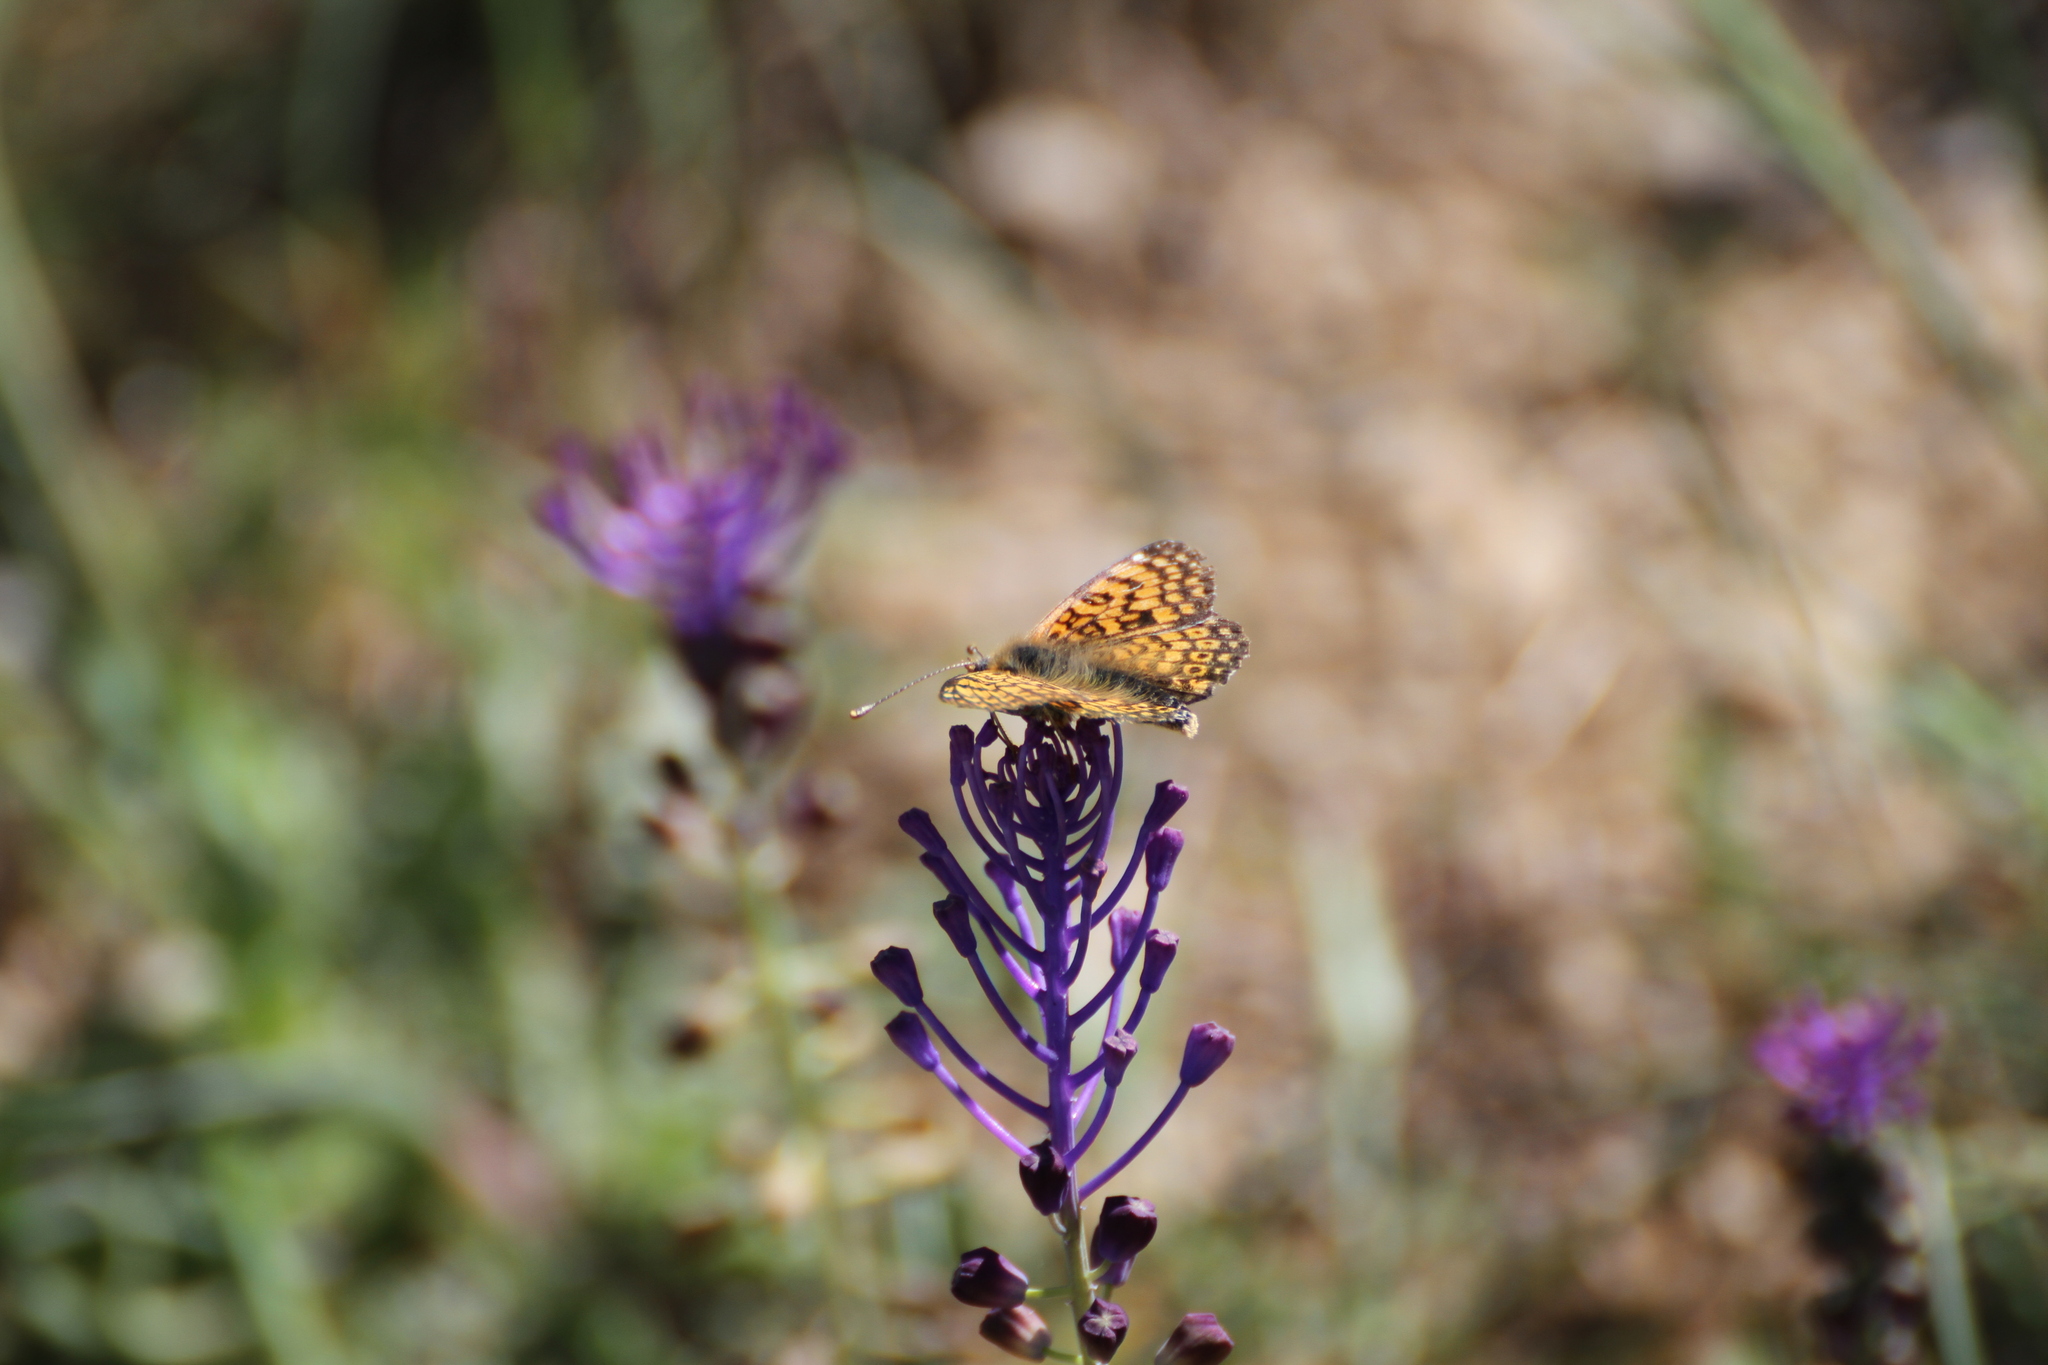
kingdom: Animalia
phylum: Arthropoda
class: Insecta
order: Lepidoptera
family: Nymphalidae
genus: Melitaea
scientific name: Melitaea cinxia
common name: Glanville fritillary
